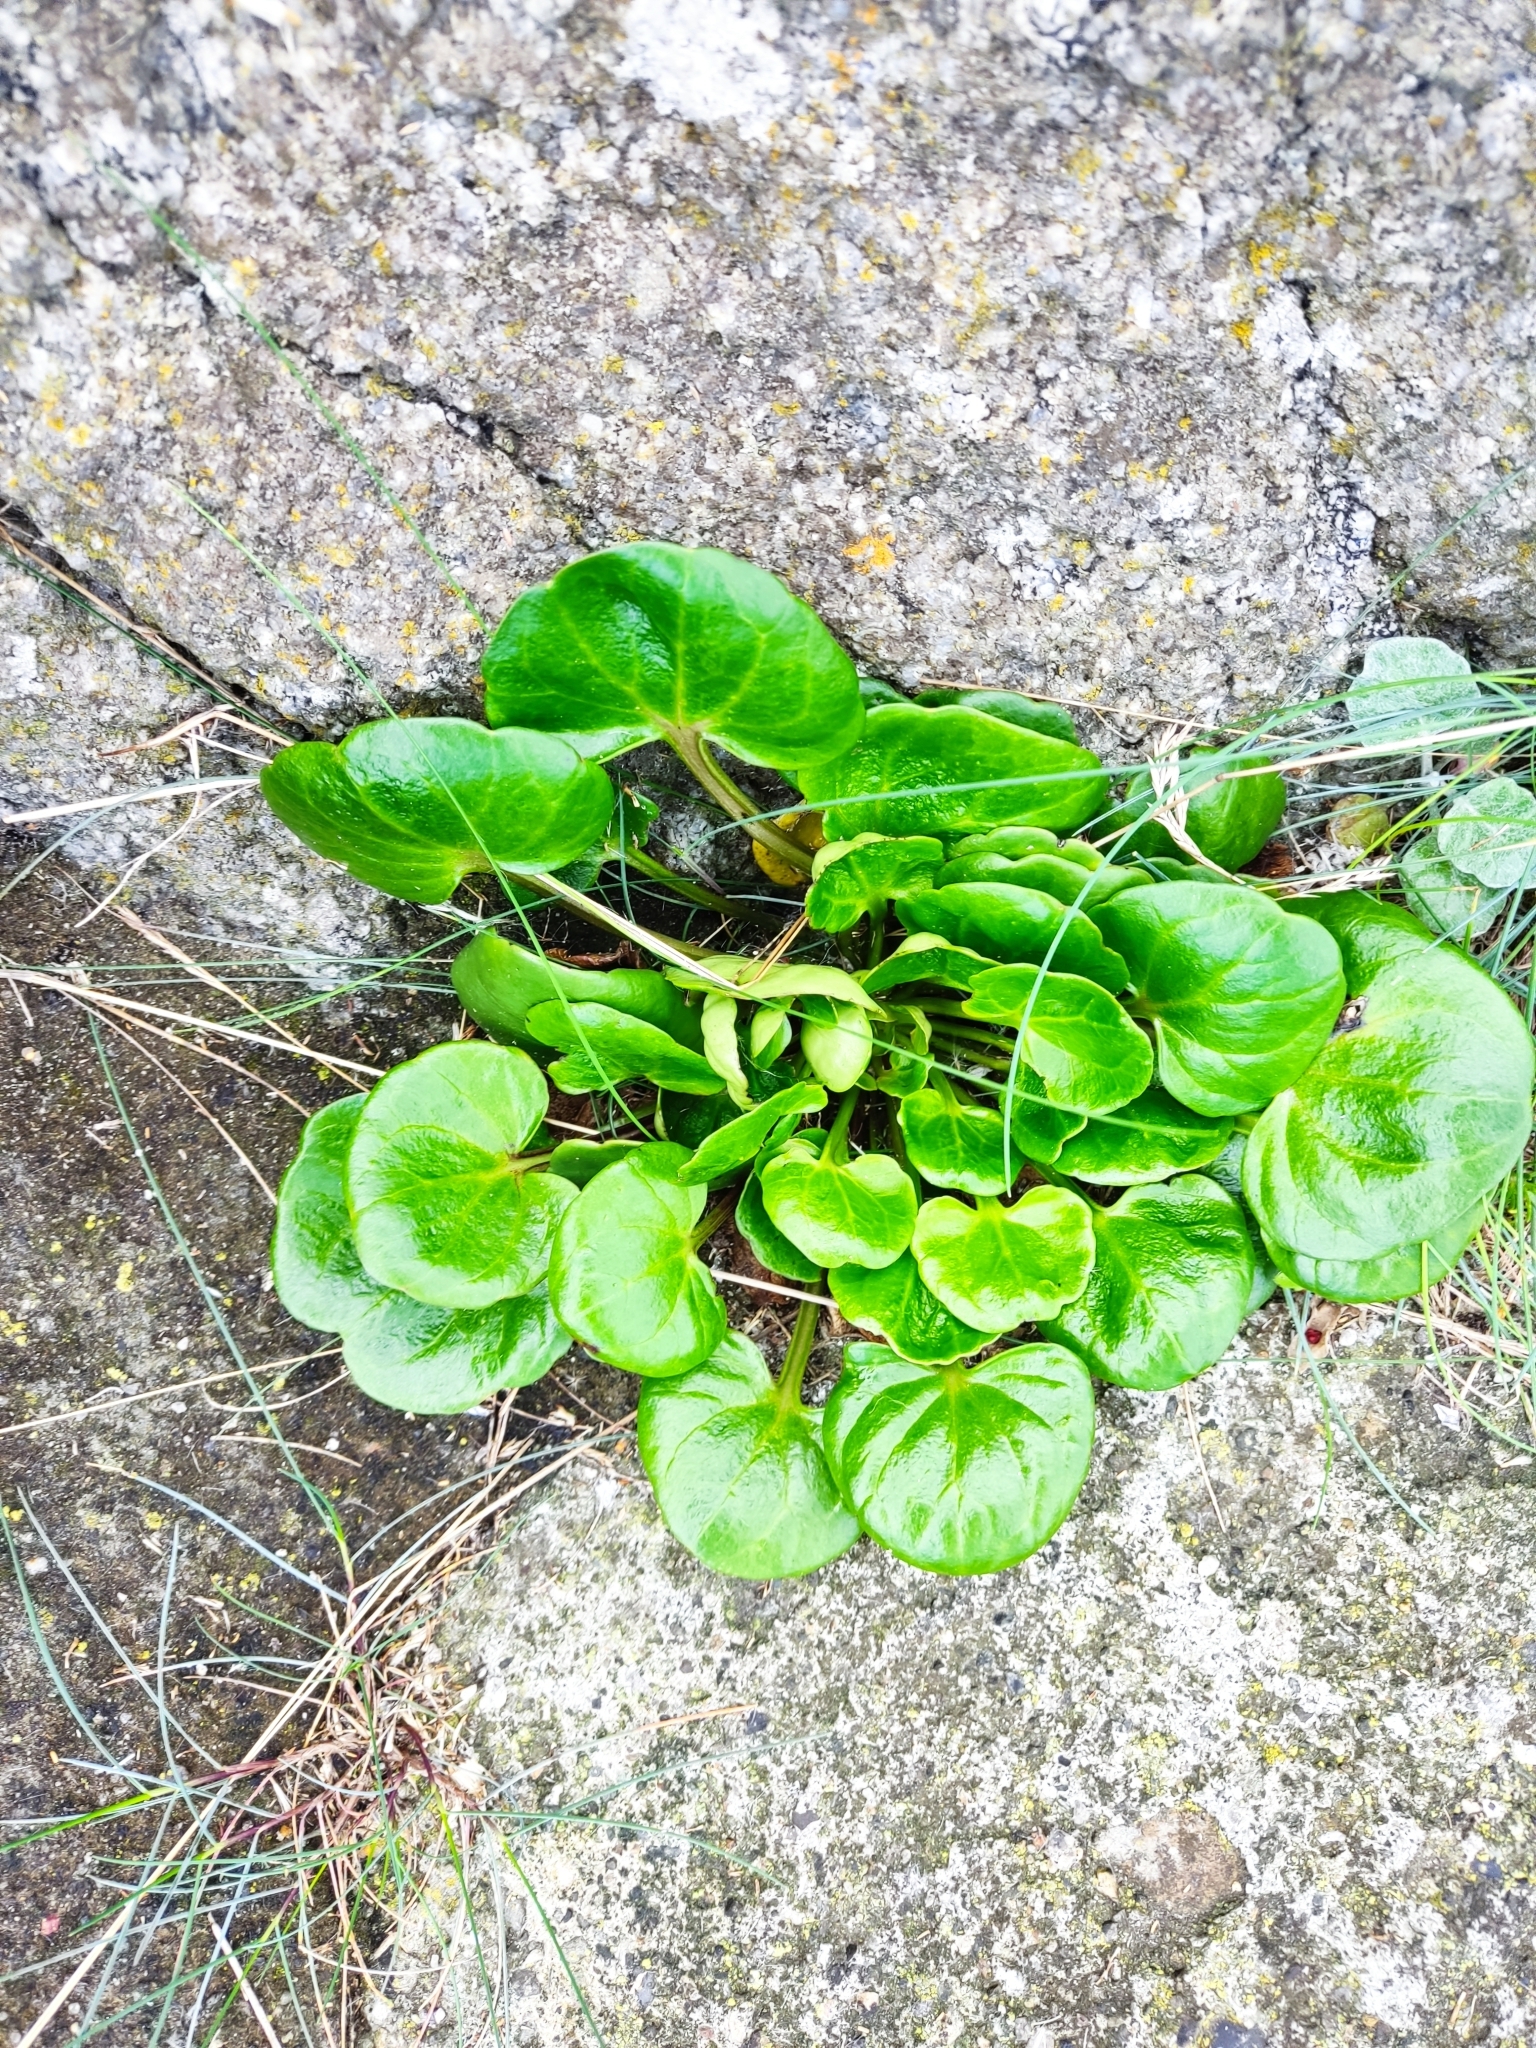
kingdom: Plantae
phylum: Tracheophyta
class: Magnoliopsida
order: Solanales
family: Convolvulaceae
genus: Calystegia
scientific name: Calystegia soldanella
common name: Sea bindweed
